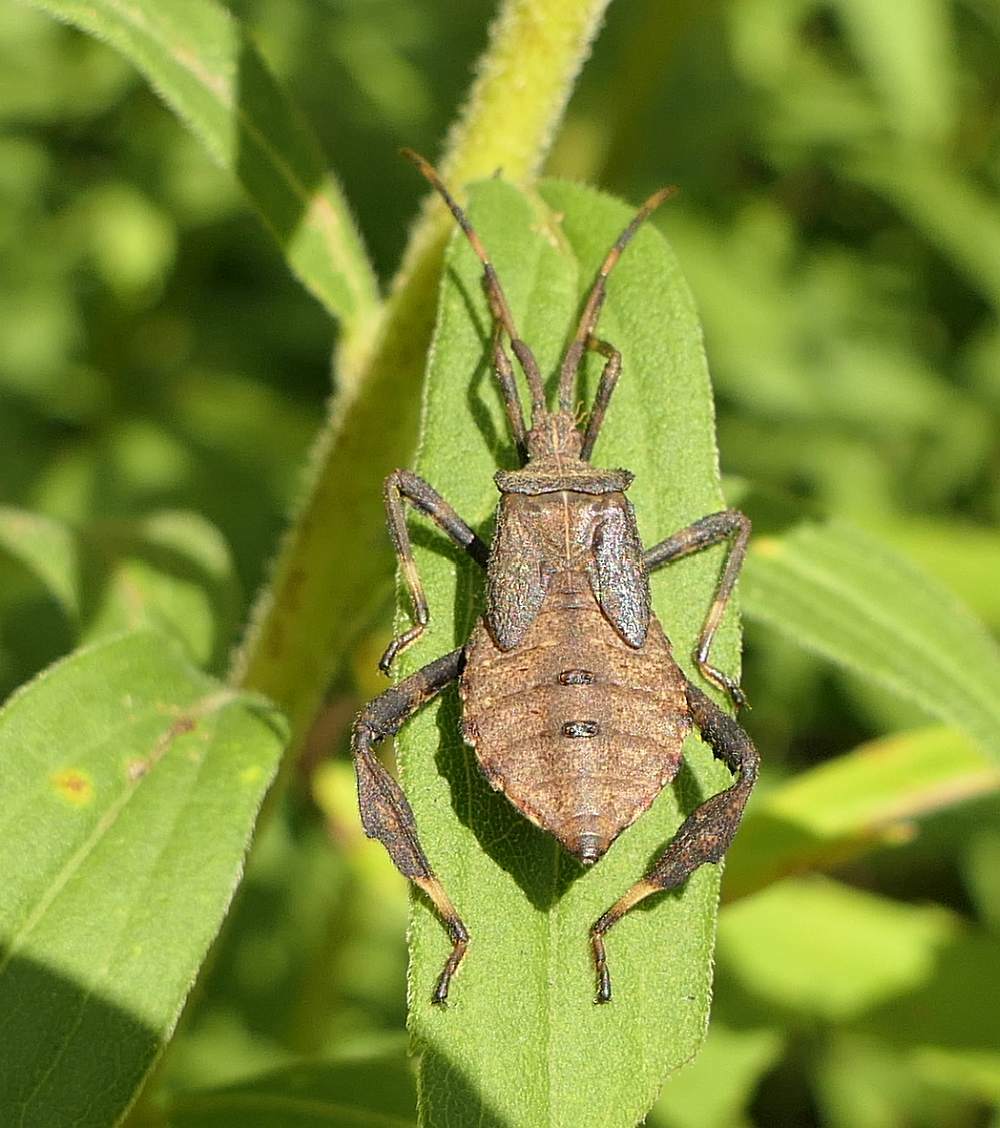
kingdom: Animalia
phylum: Arthropoda
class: Insecta
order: Hemiptera
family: Coreidae
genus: Acanthocephala
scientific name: Acanthocephala terminalis
